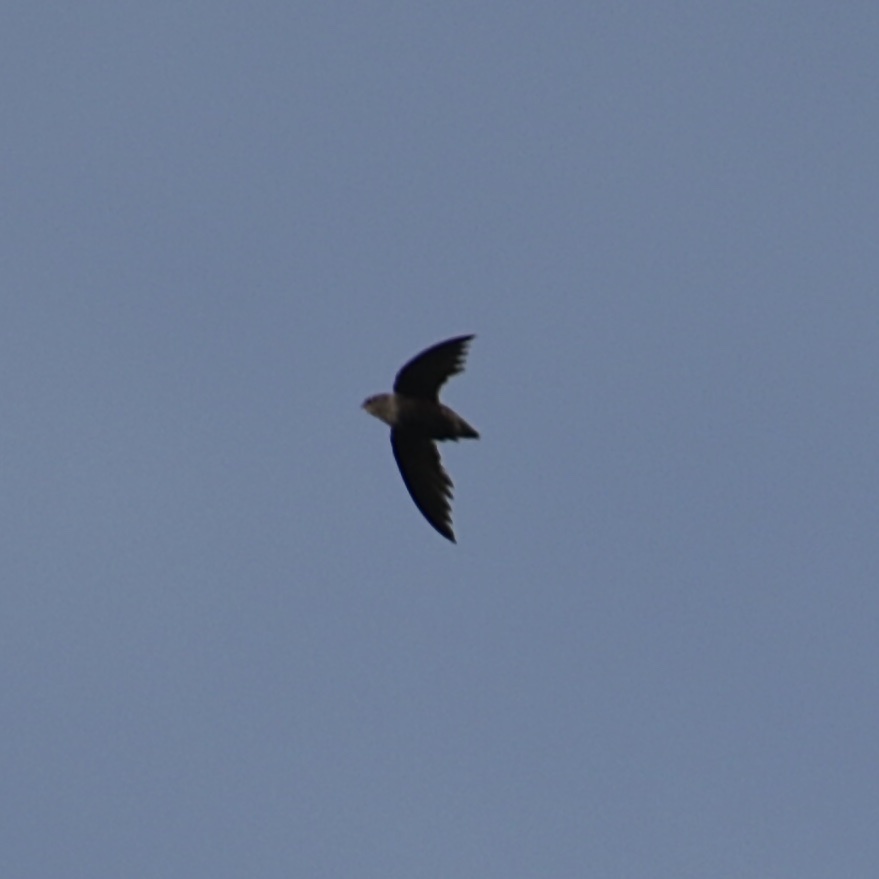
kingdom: Animalia
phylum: Chordata
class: Aves
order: Apodiformes
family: Apodidae
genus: Chaetura
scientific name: Chaetura brachyura
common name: Short-tailed swift
